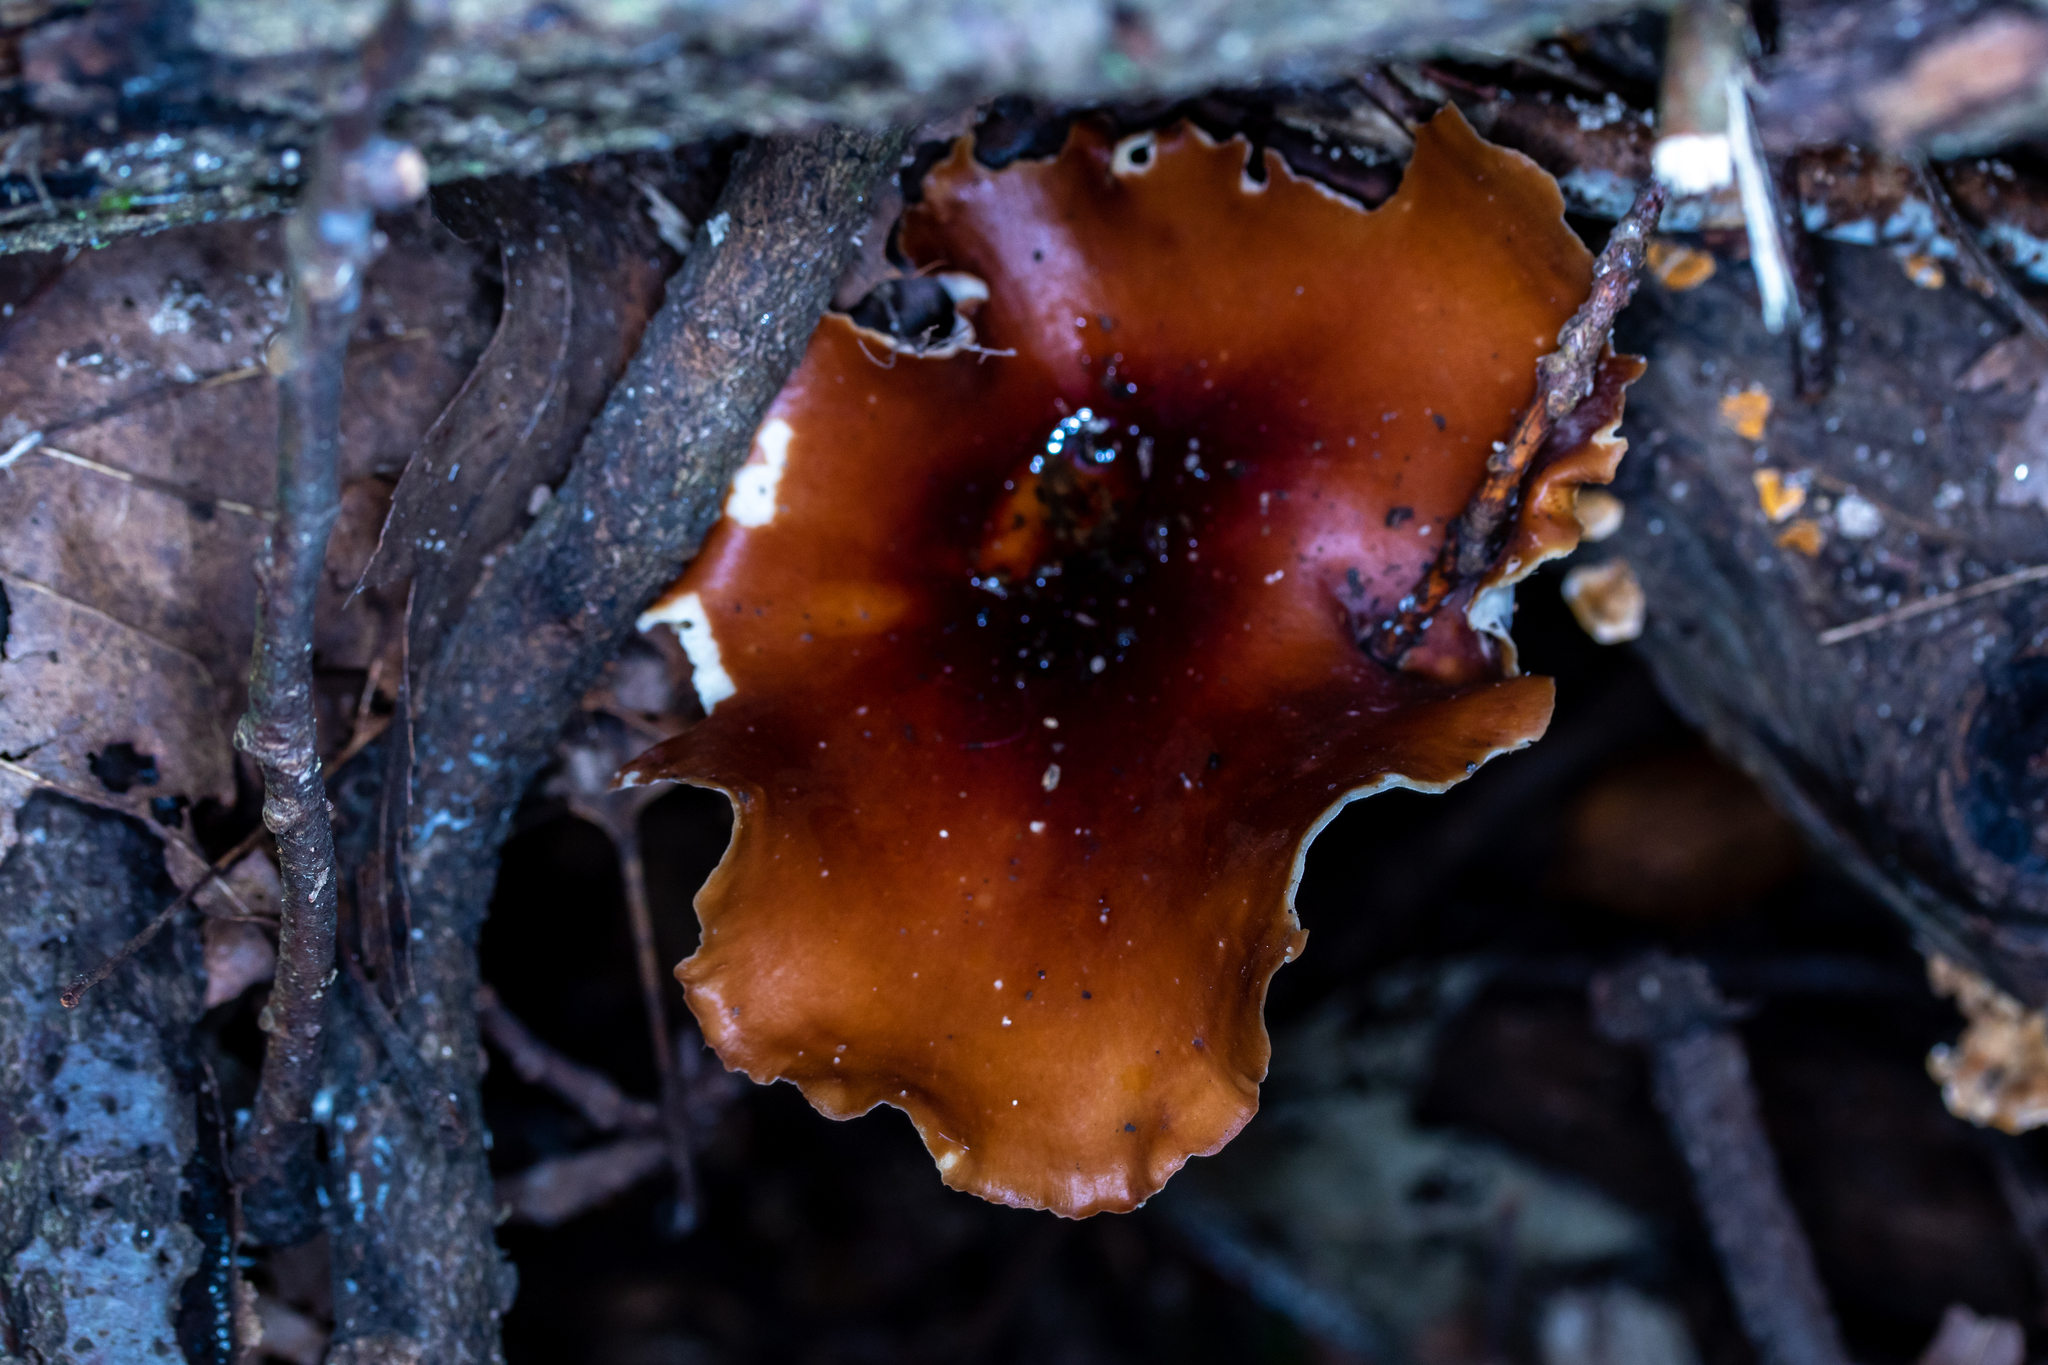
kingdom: Fungi
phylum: Basidiomycota
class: Agaricomycetes
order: Polyporales
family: Polyporaceae
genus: Picipes
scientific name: Picipes badius
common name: Bay polypore
